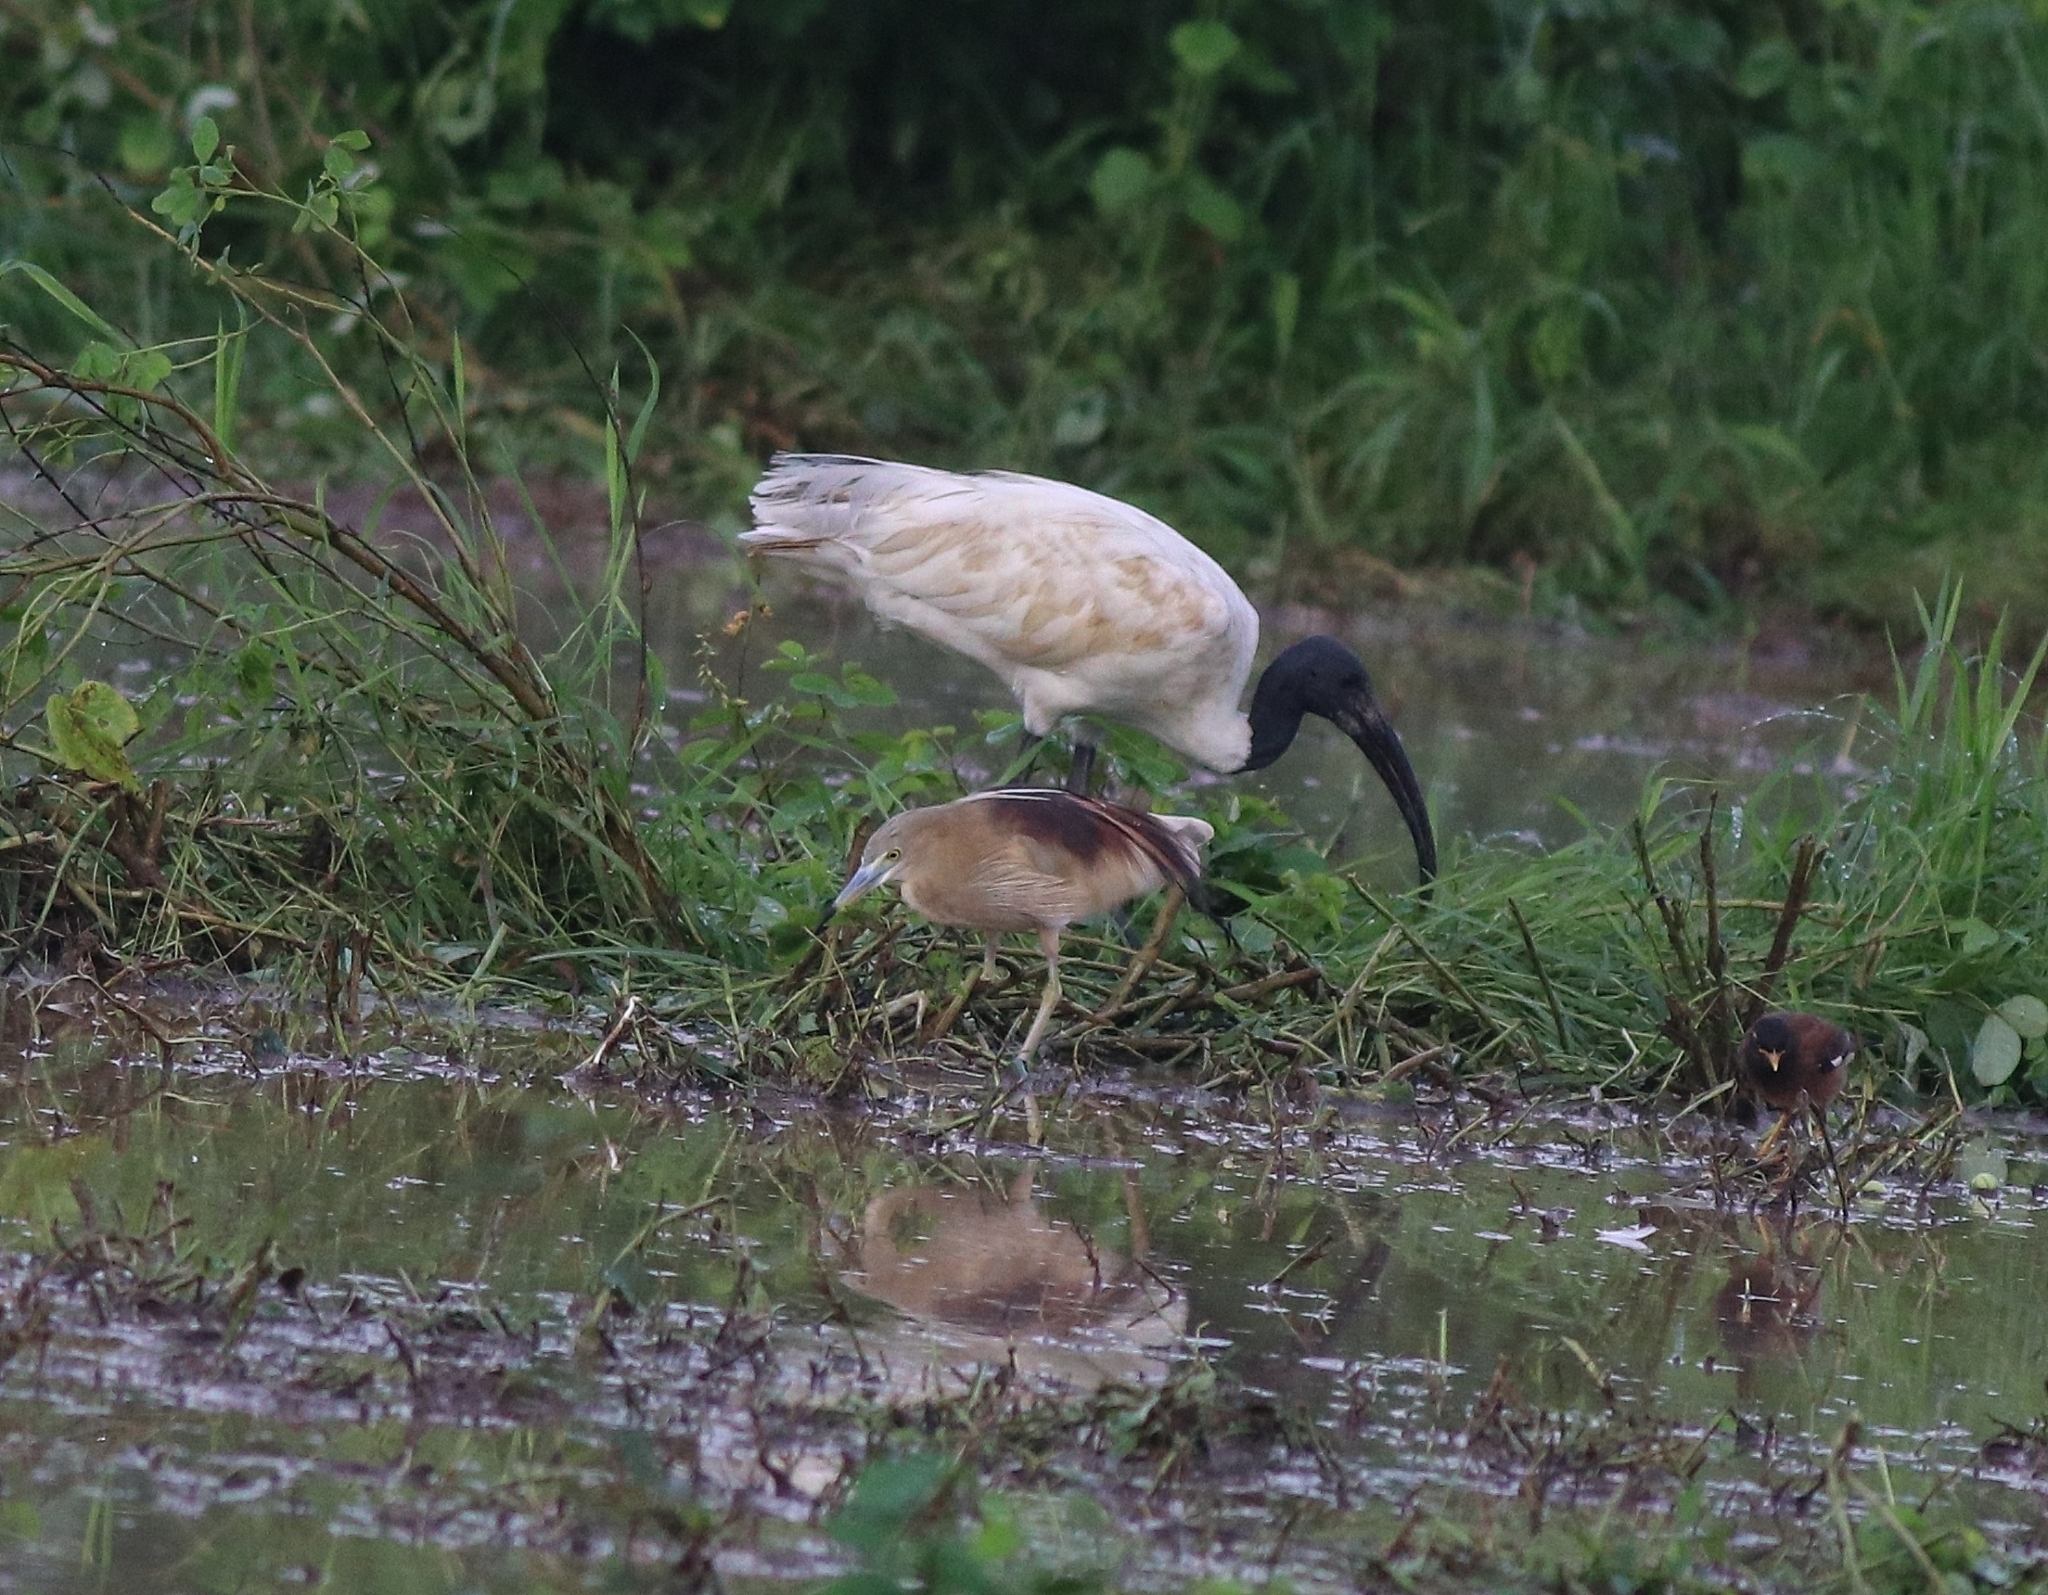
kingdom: Animalia
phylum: Chordata
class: Aves
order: Pelecaniformes
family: Threskiornithidae
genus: Threskiornis
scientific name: Threskiornis melanocephalus
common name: Black-headed ibis
